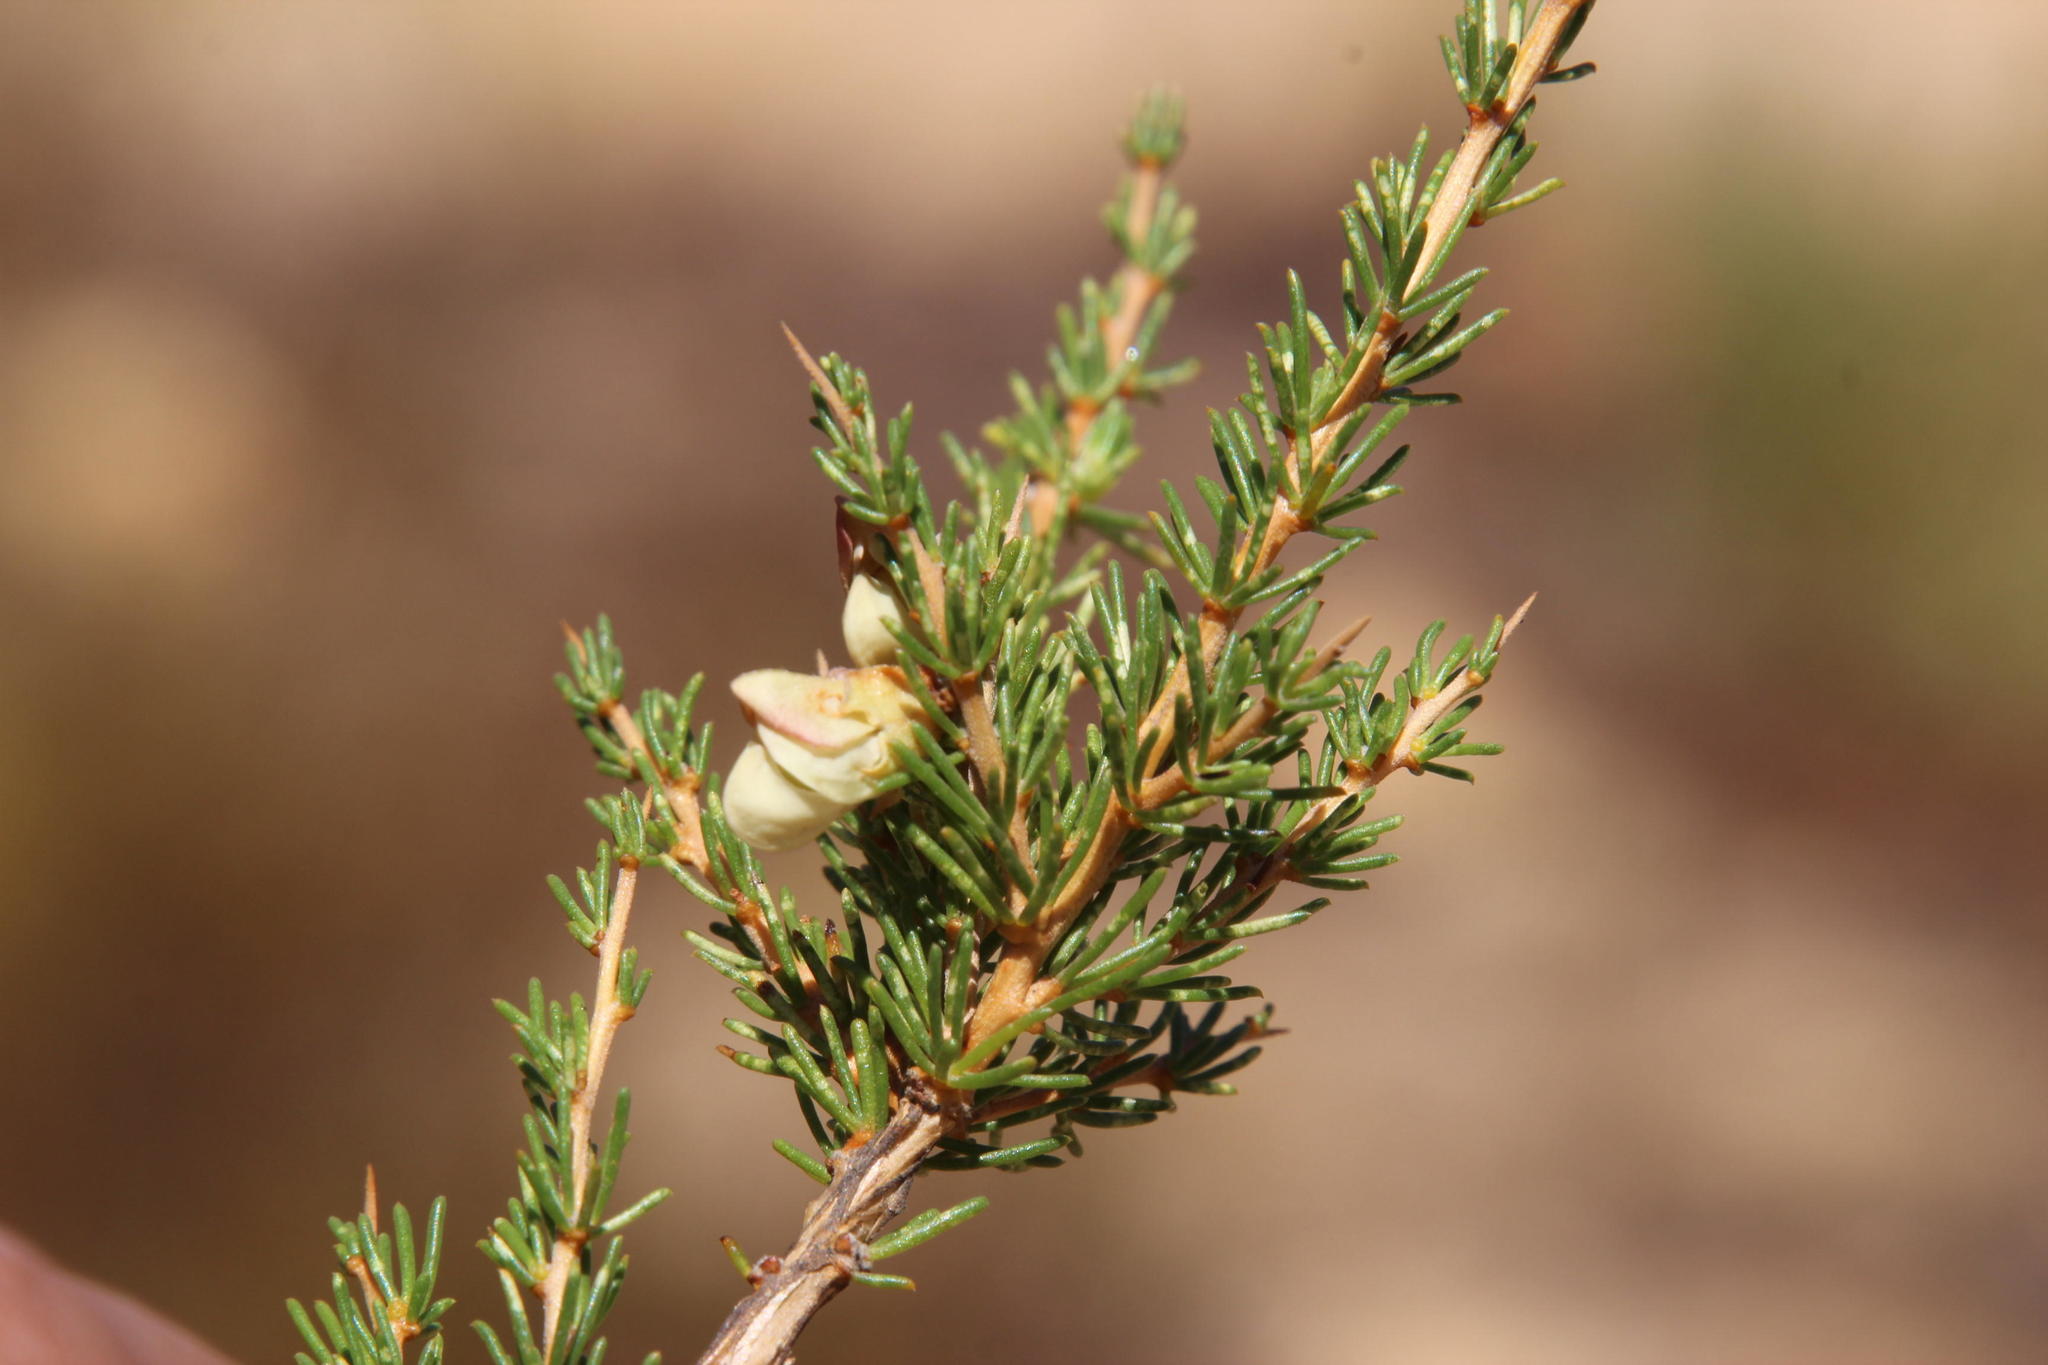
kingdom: Plantae
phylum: Tracheophyta
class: Magnoliopsida
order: Fabales
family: Fabaceae
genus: Aspalathus
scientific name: Aspalathus arida
